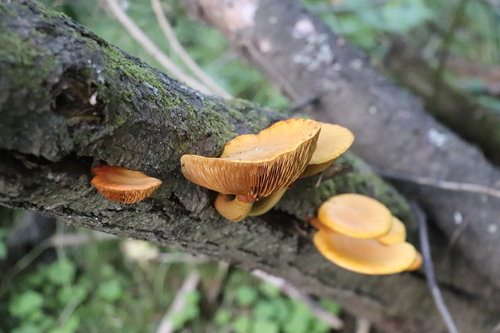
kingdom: Fungi
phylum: Basidiomycota
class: Agaricomycetes
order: Agaricales
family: Hymenogastraceae
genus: Gymnopilus
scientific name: Gymnopilus junonius
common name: Spectacular rustgill
